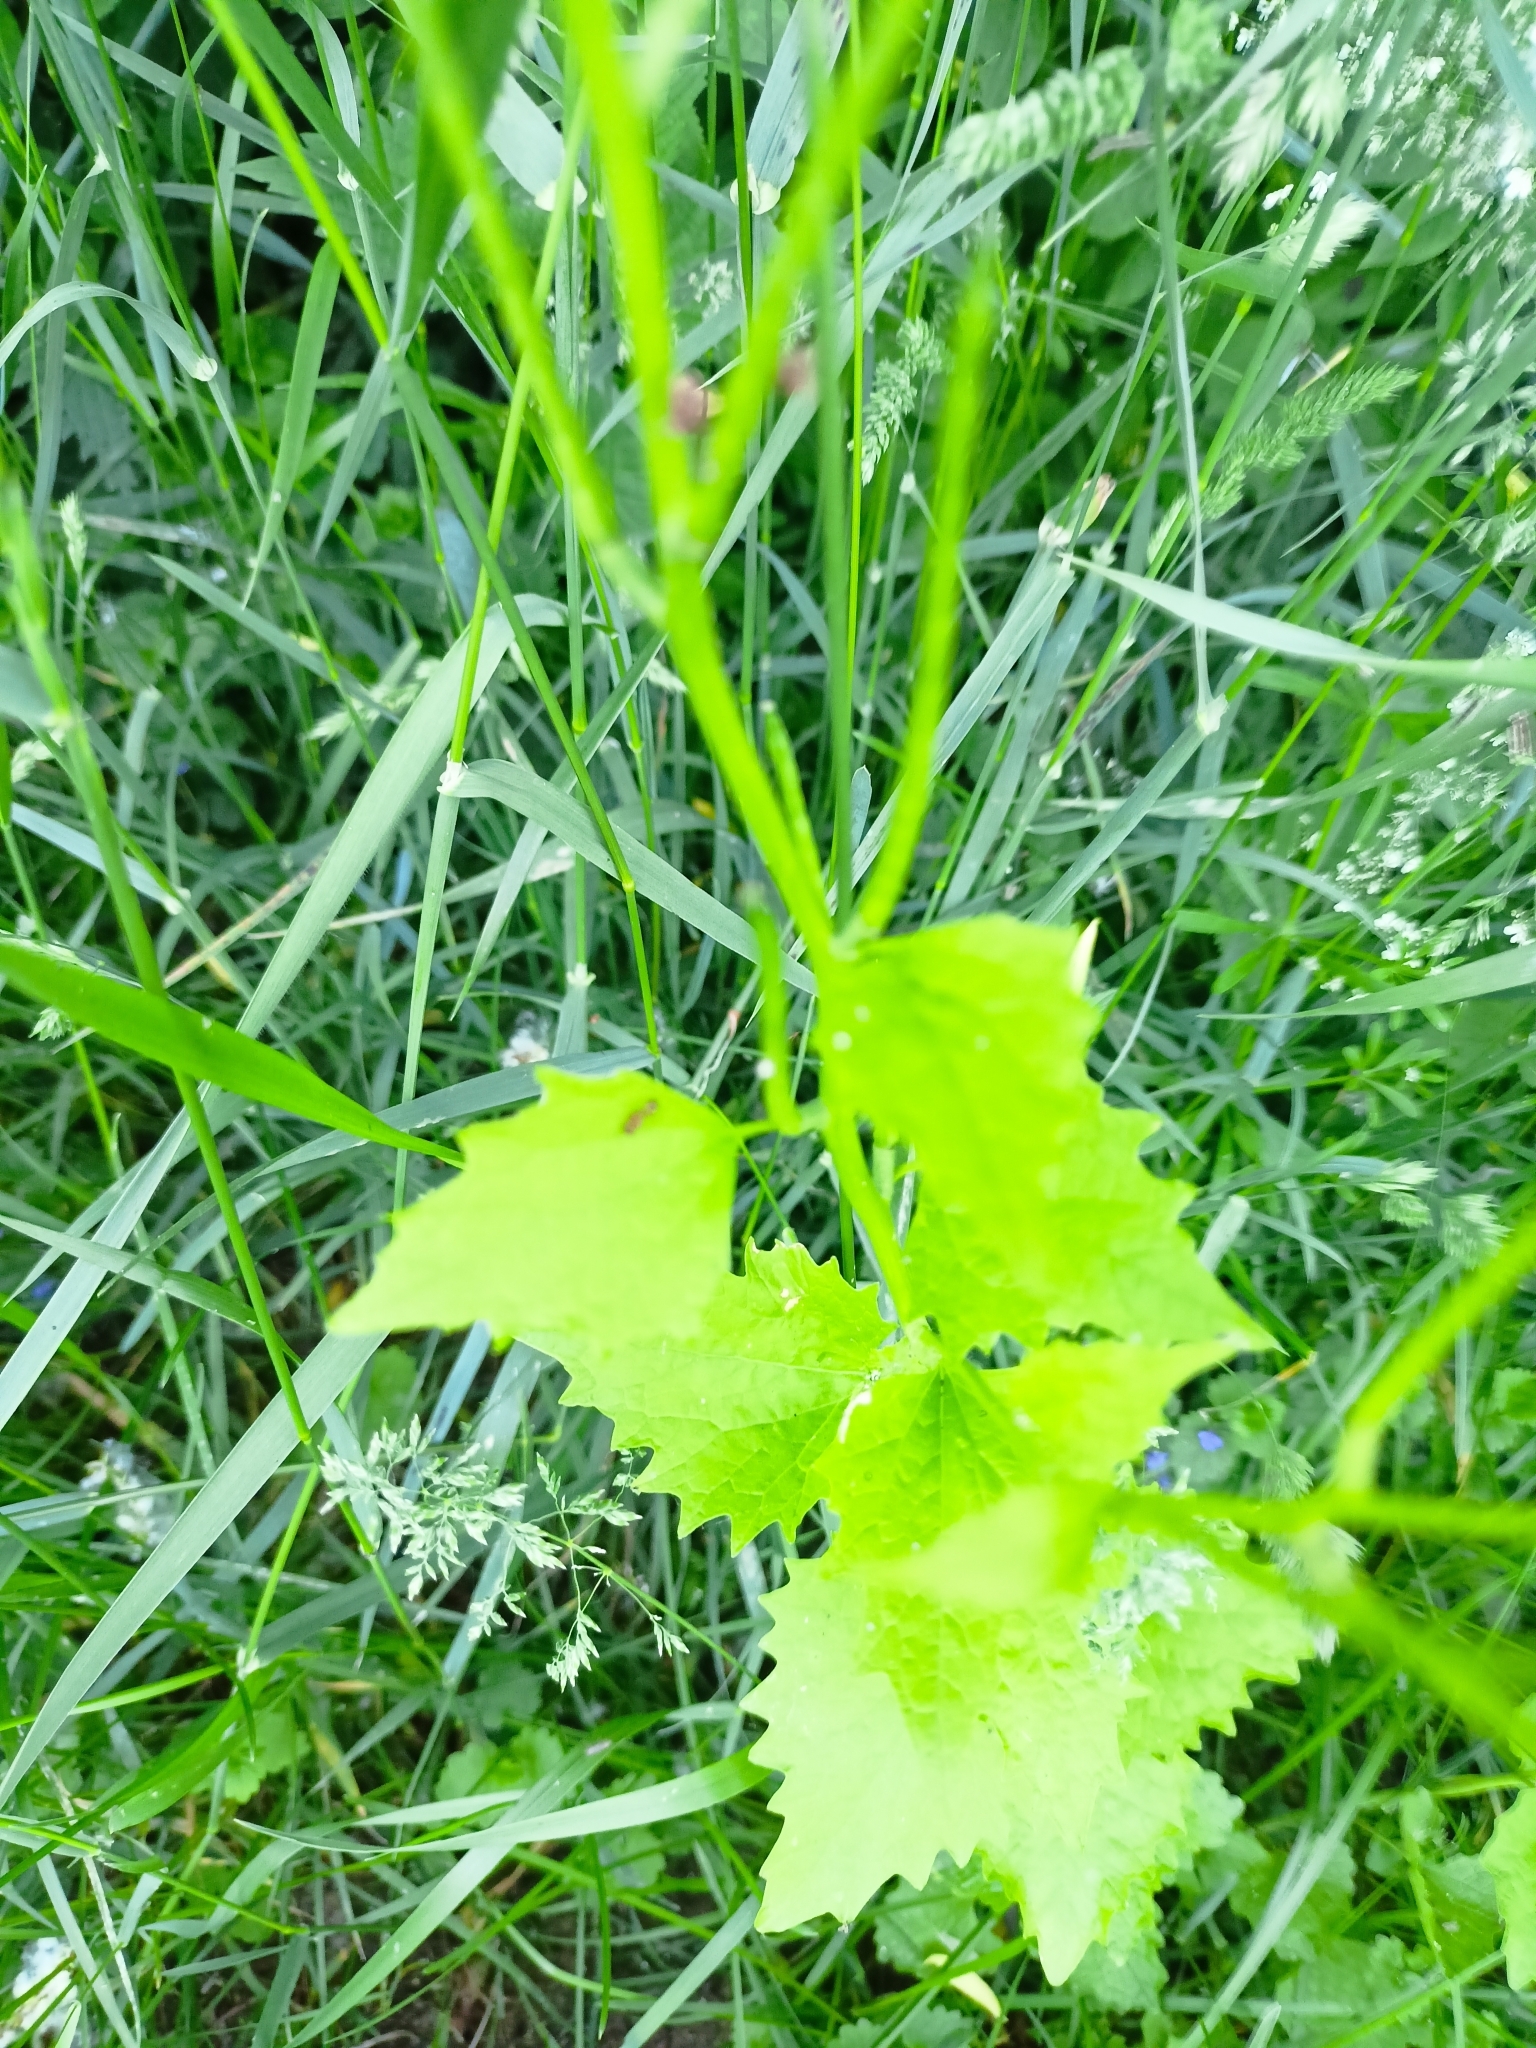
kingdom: Plantae
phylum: Tracheophyta
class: Magnoliopsida
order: Brassicales
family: Brassicaceae
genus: Alliaria
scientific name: Alliaria petiolata
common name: Garlic mustard
